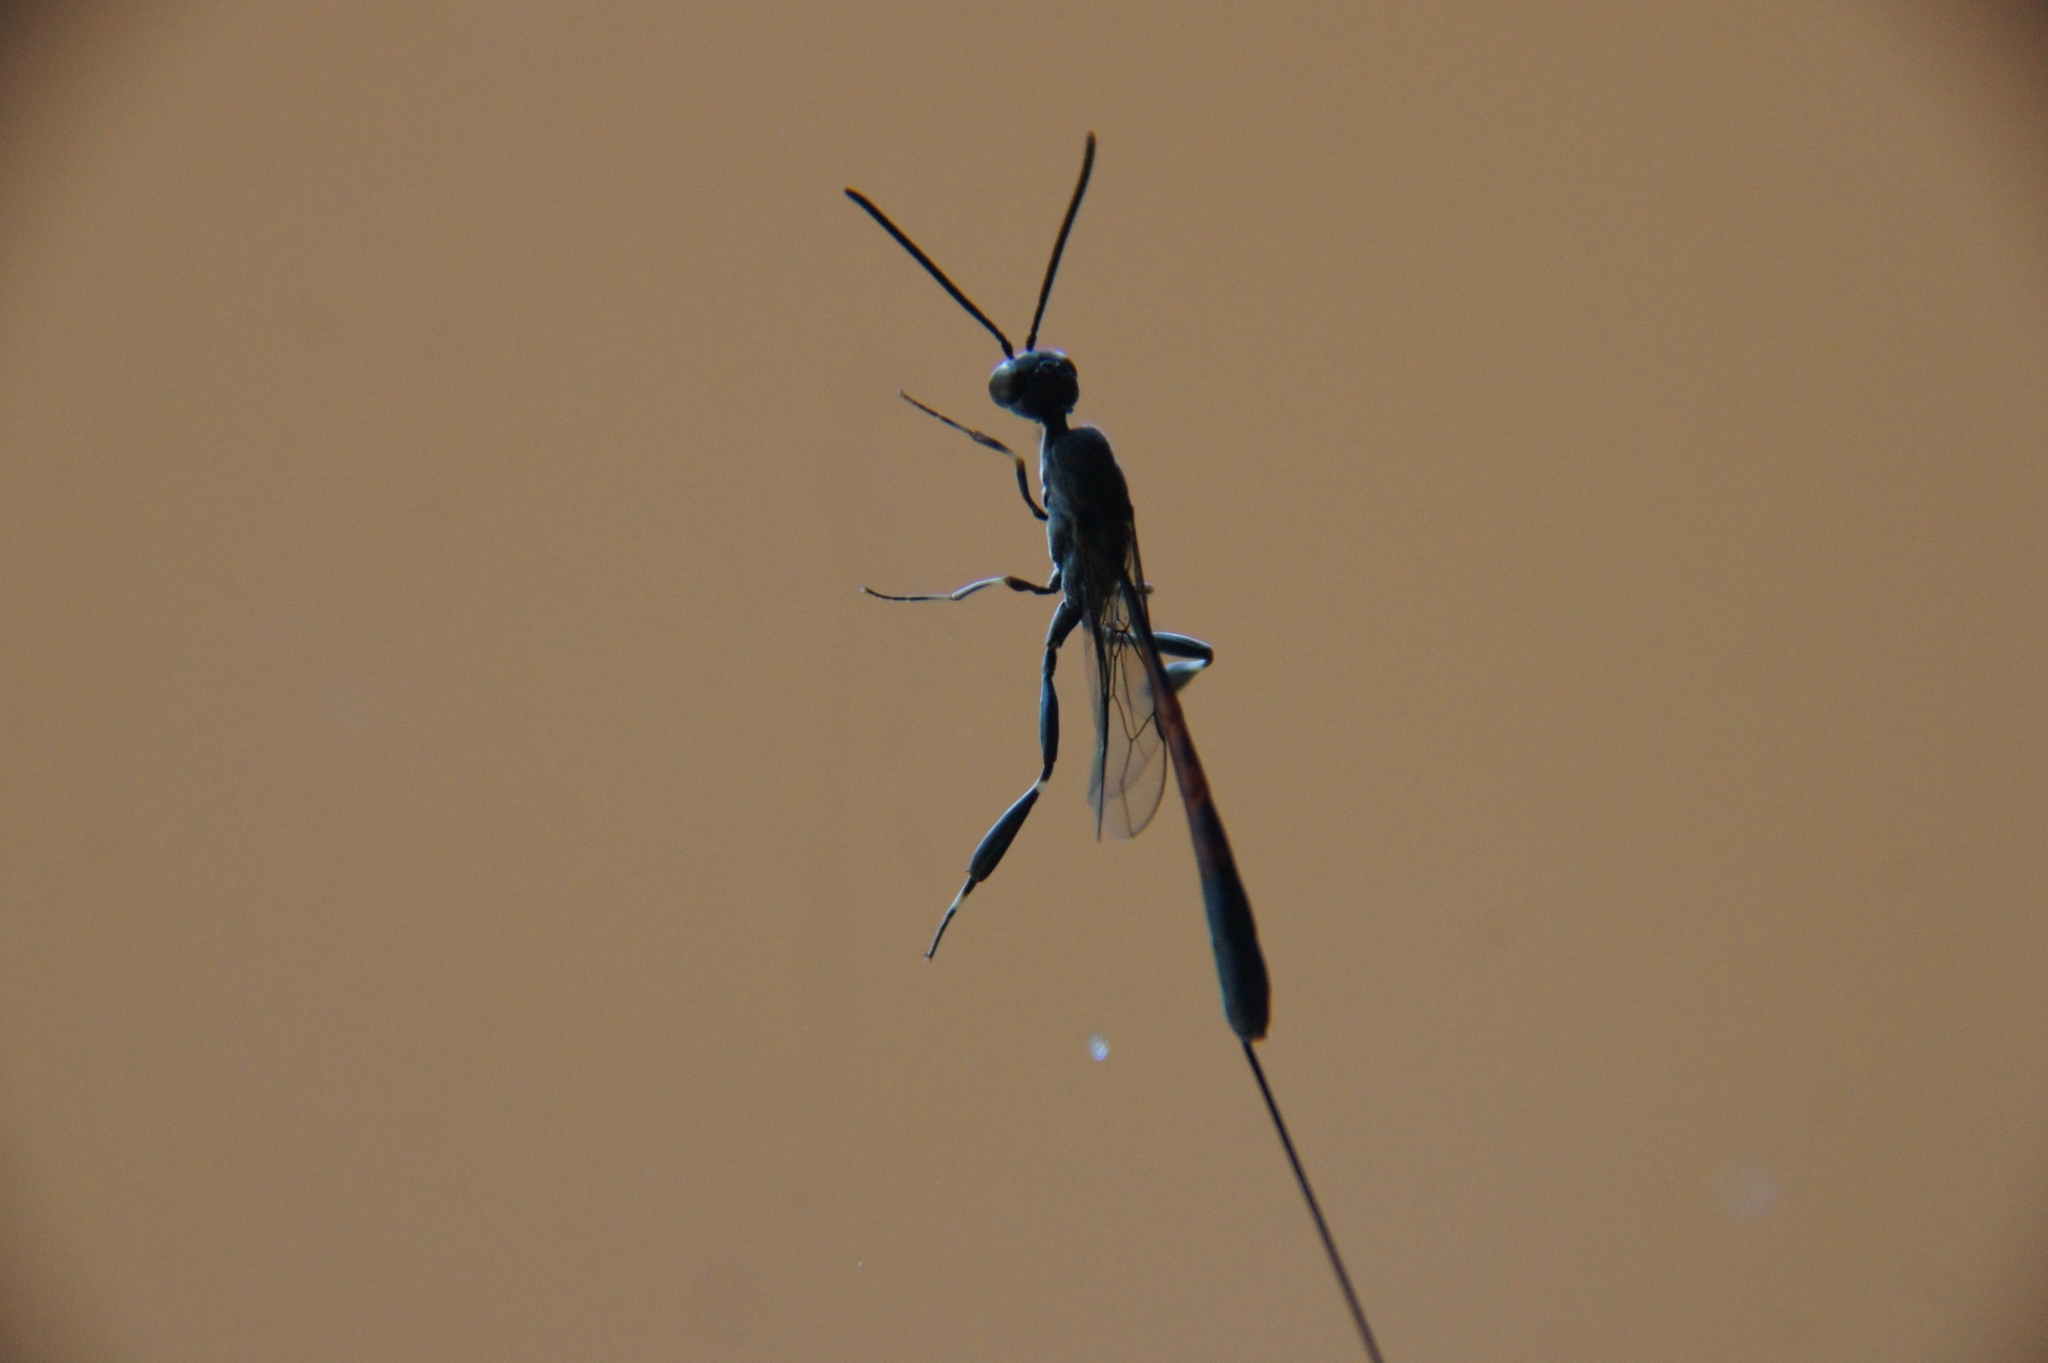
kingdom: Animalia
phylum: Arthropoda
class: Insecta
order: Hymenoptera
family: Gasteruptiidae
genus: Gasteruption
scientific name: Gasteruption jaculator
